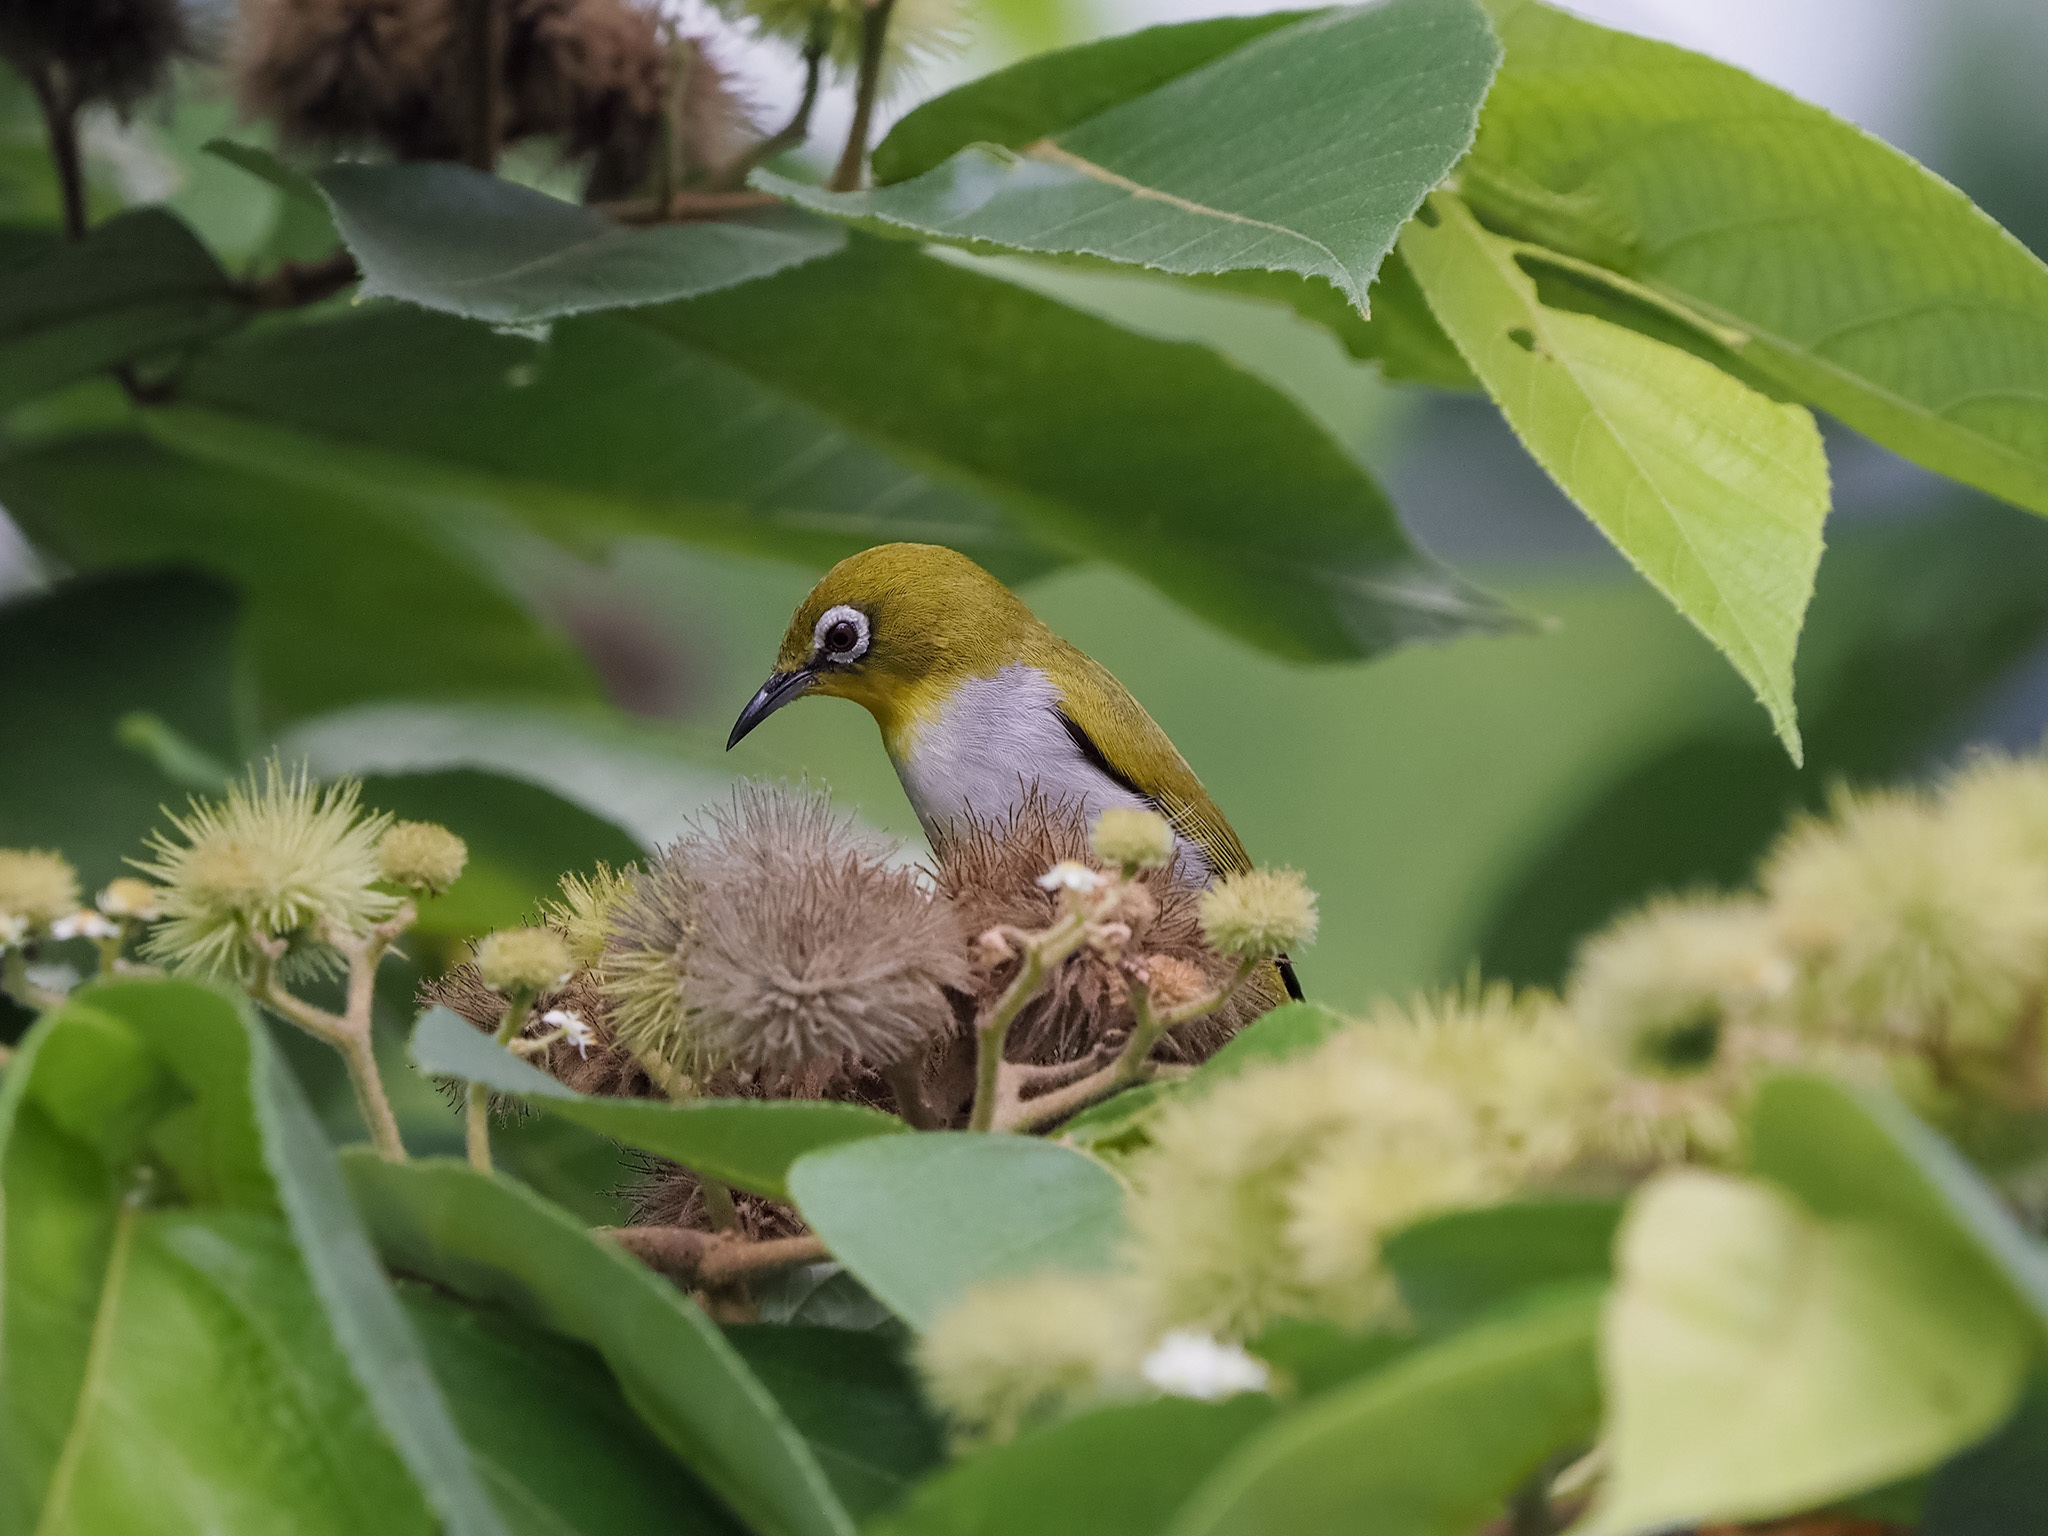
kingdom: Animalia
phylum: Chordata
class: Aves
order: Passeriformes
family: Zosteropidae
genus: Zosterops
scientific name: Zosterops simplex
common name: Swinhoe's white-eye
